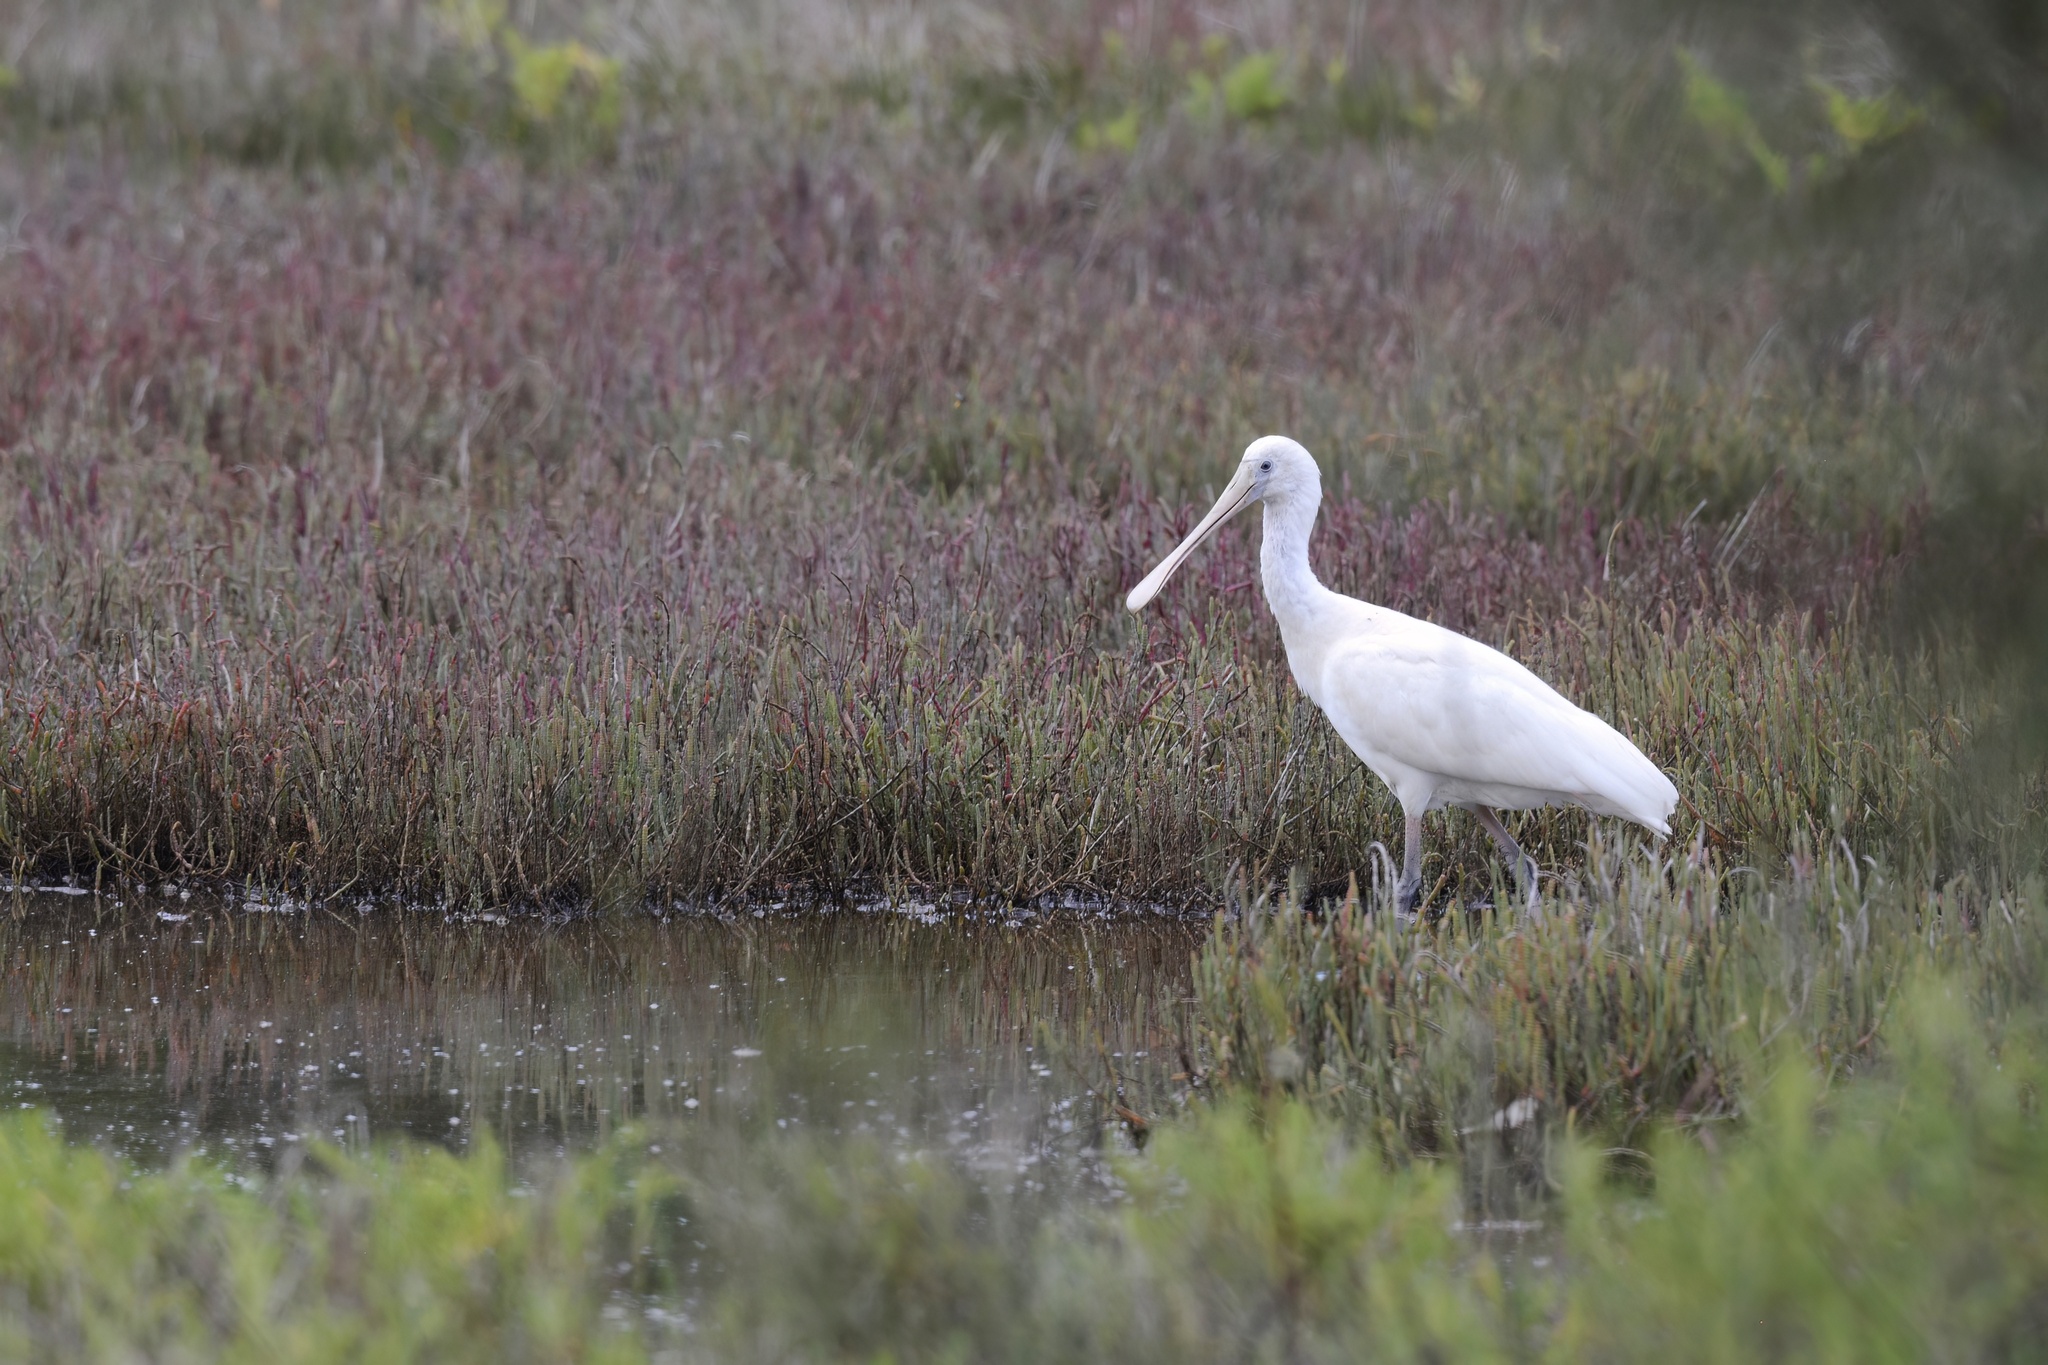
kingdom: Animalia
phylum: Chordata
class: Aves
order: Pelecaniformes
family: Threskiornithidae
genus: Platalea
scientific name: Platalea flavipes
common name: Yellow-billed spoonbill
